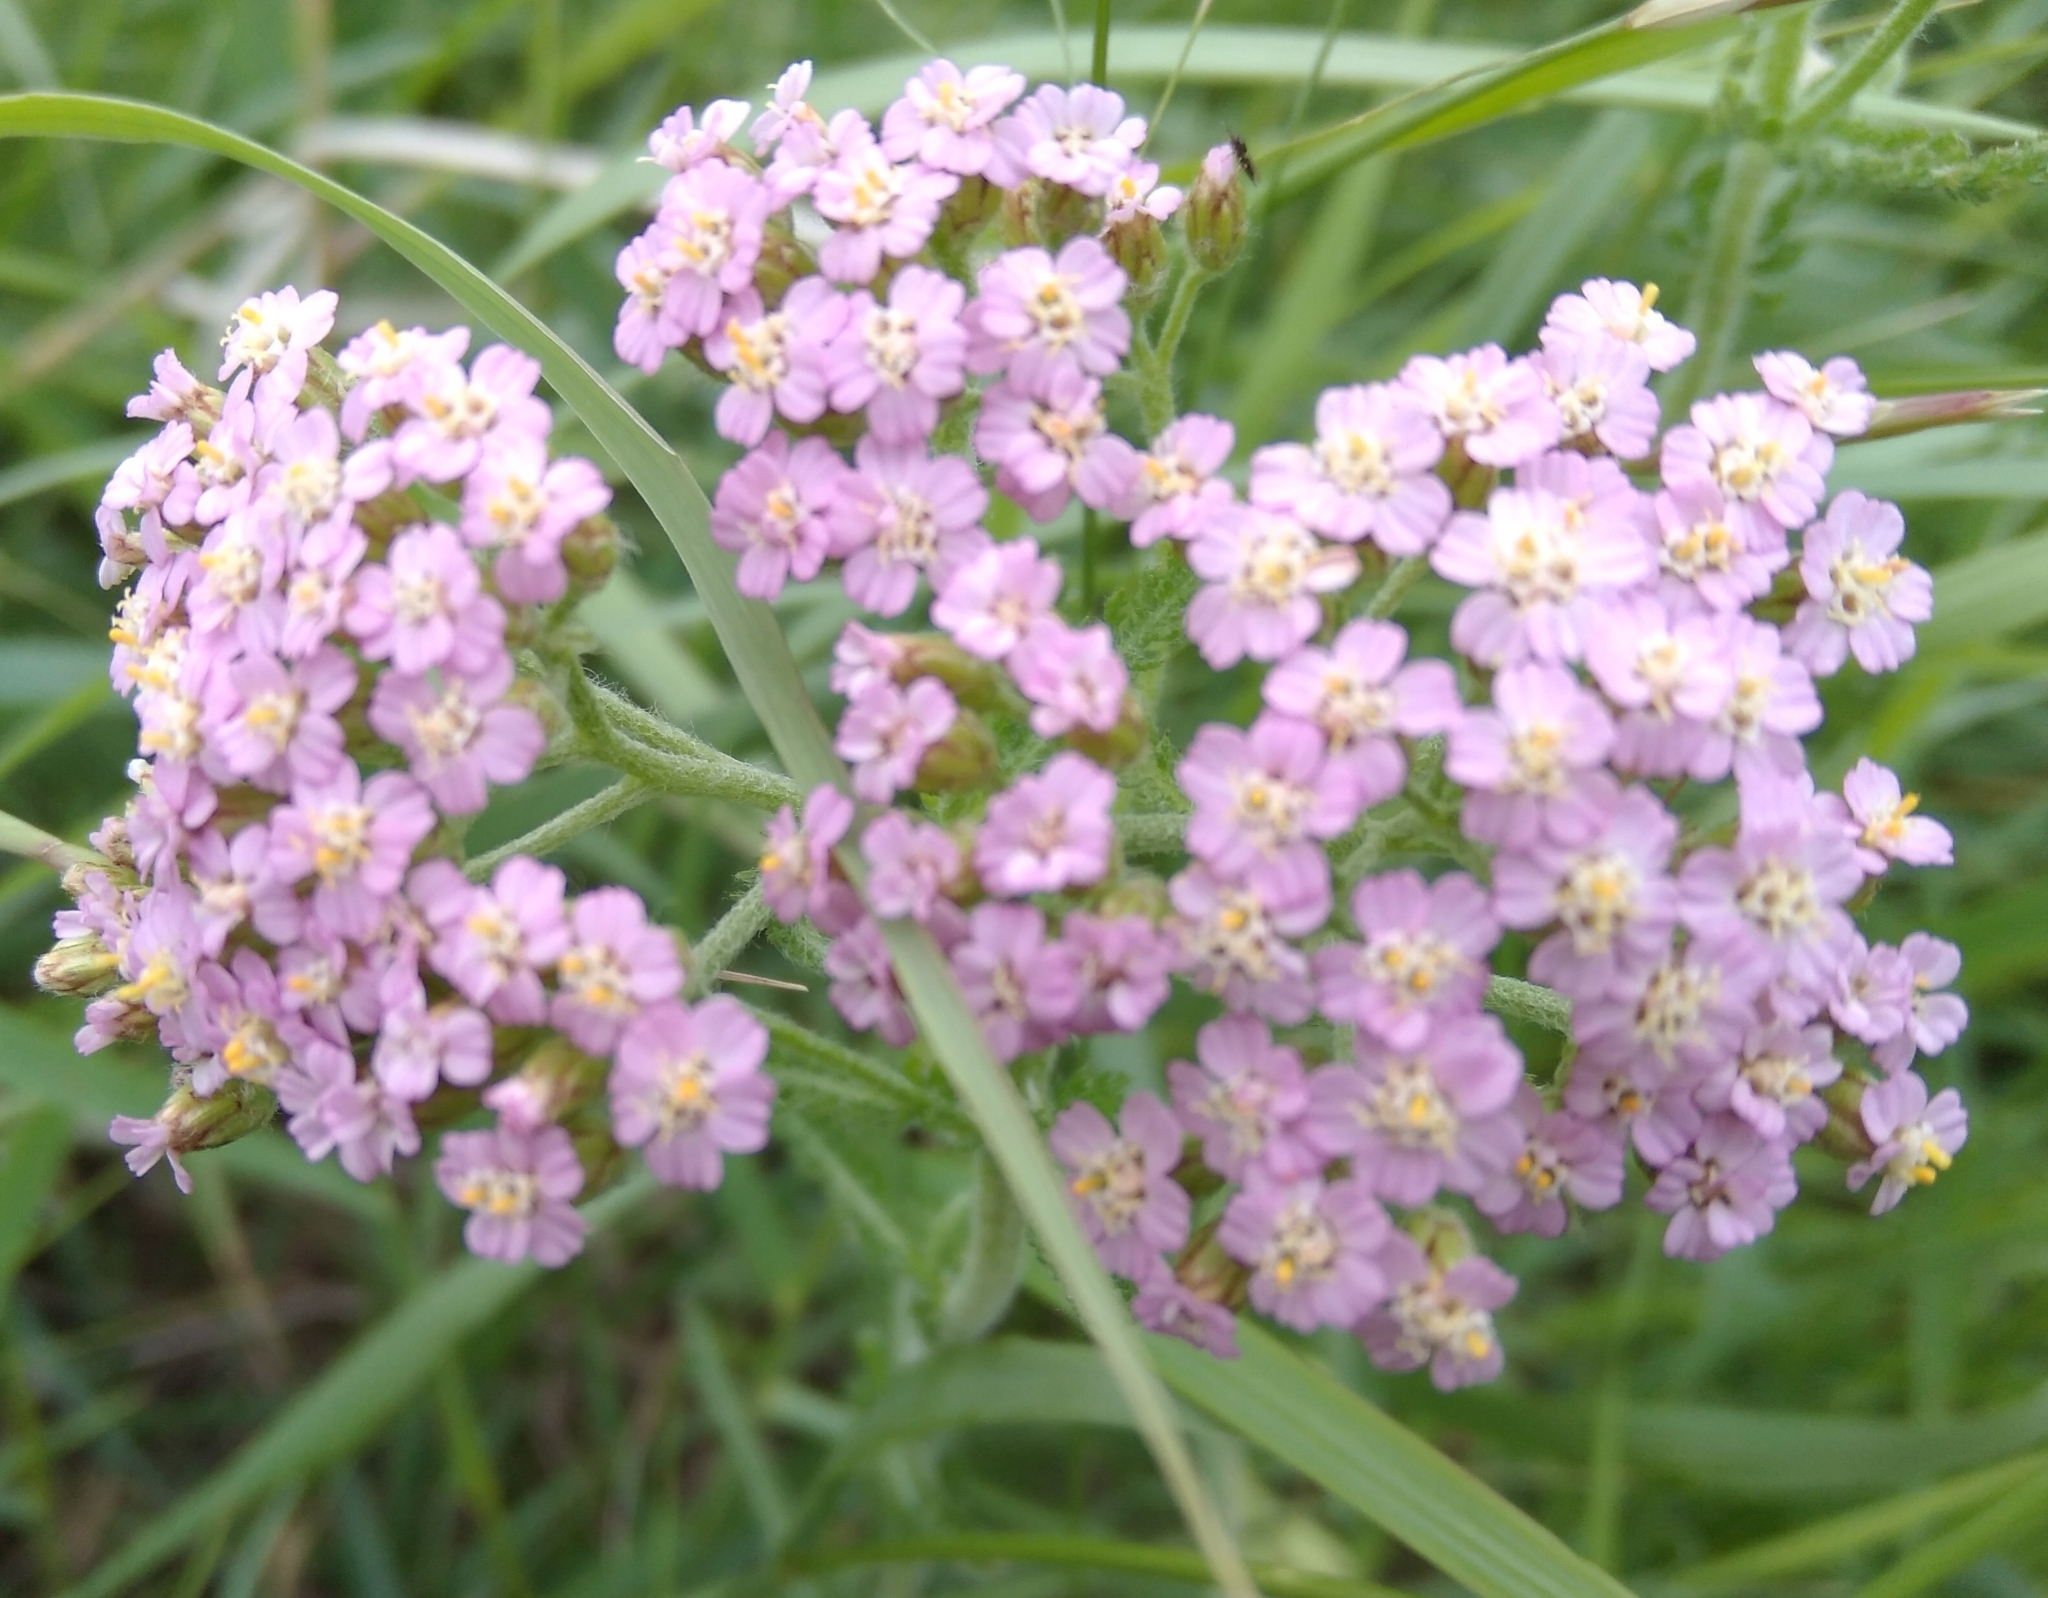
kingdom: Plantae
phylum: Tracheophyta
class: Magnoliopsida
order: Asterales
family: Asteraceae
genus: Achillea
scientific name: Achillea asiatica
